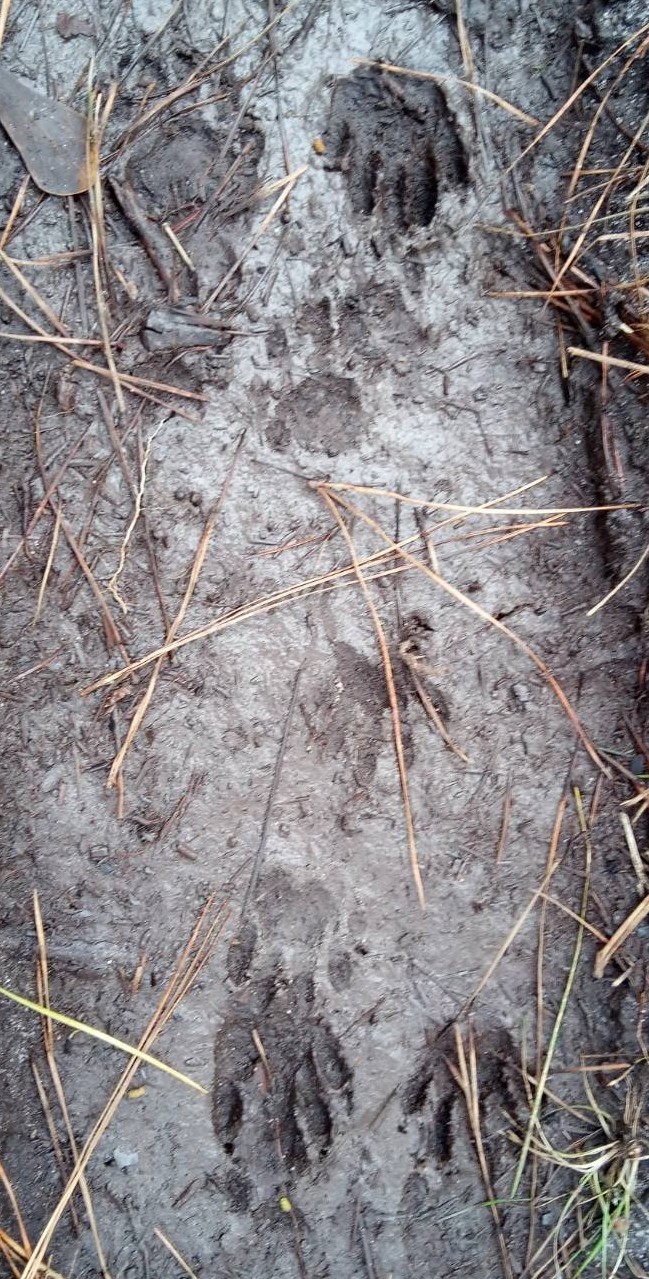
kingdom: Animalia
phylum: Chordata
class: Mammalia
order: Carnivora
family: Procyonidae
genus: Procyon
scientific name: Procyon lotor
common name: Raccoon
